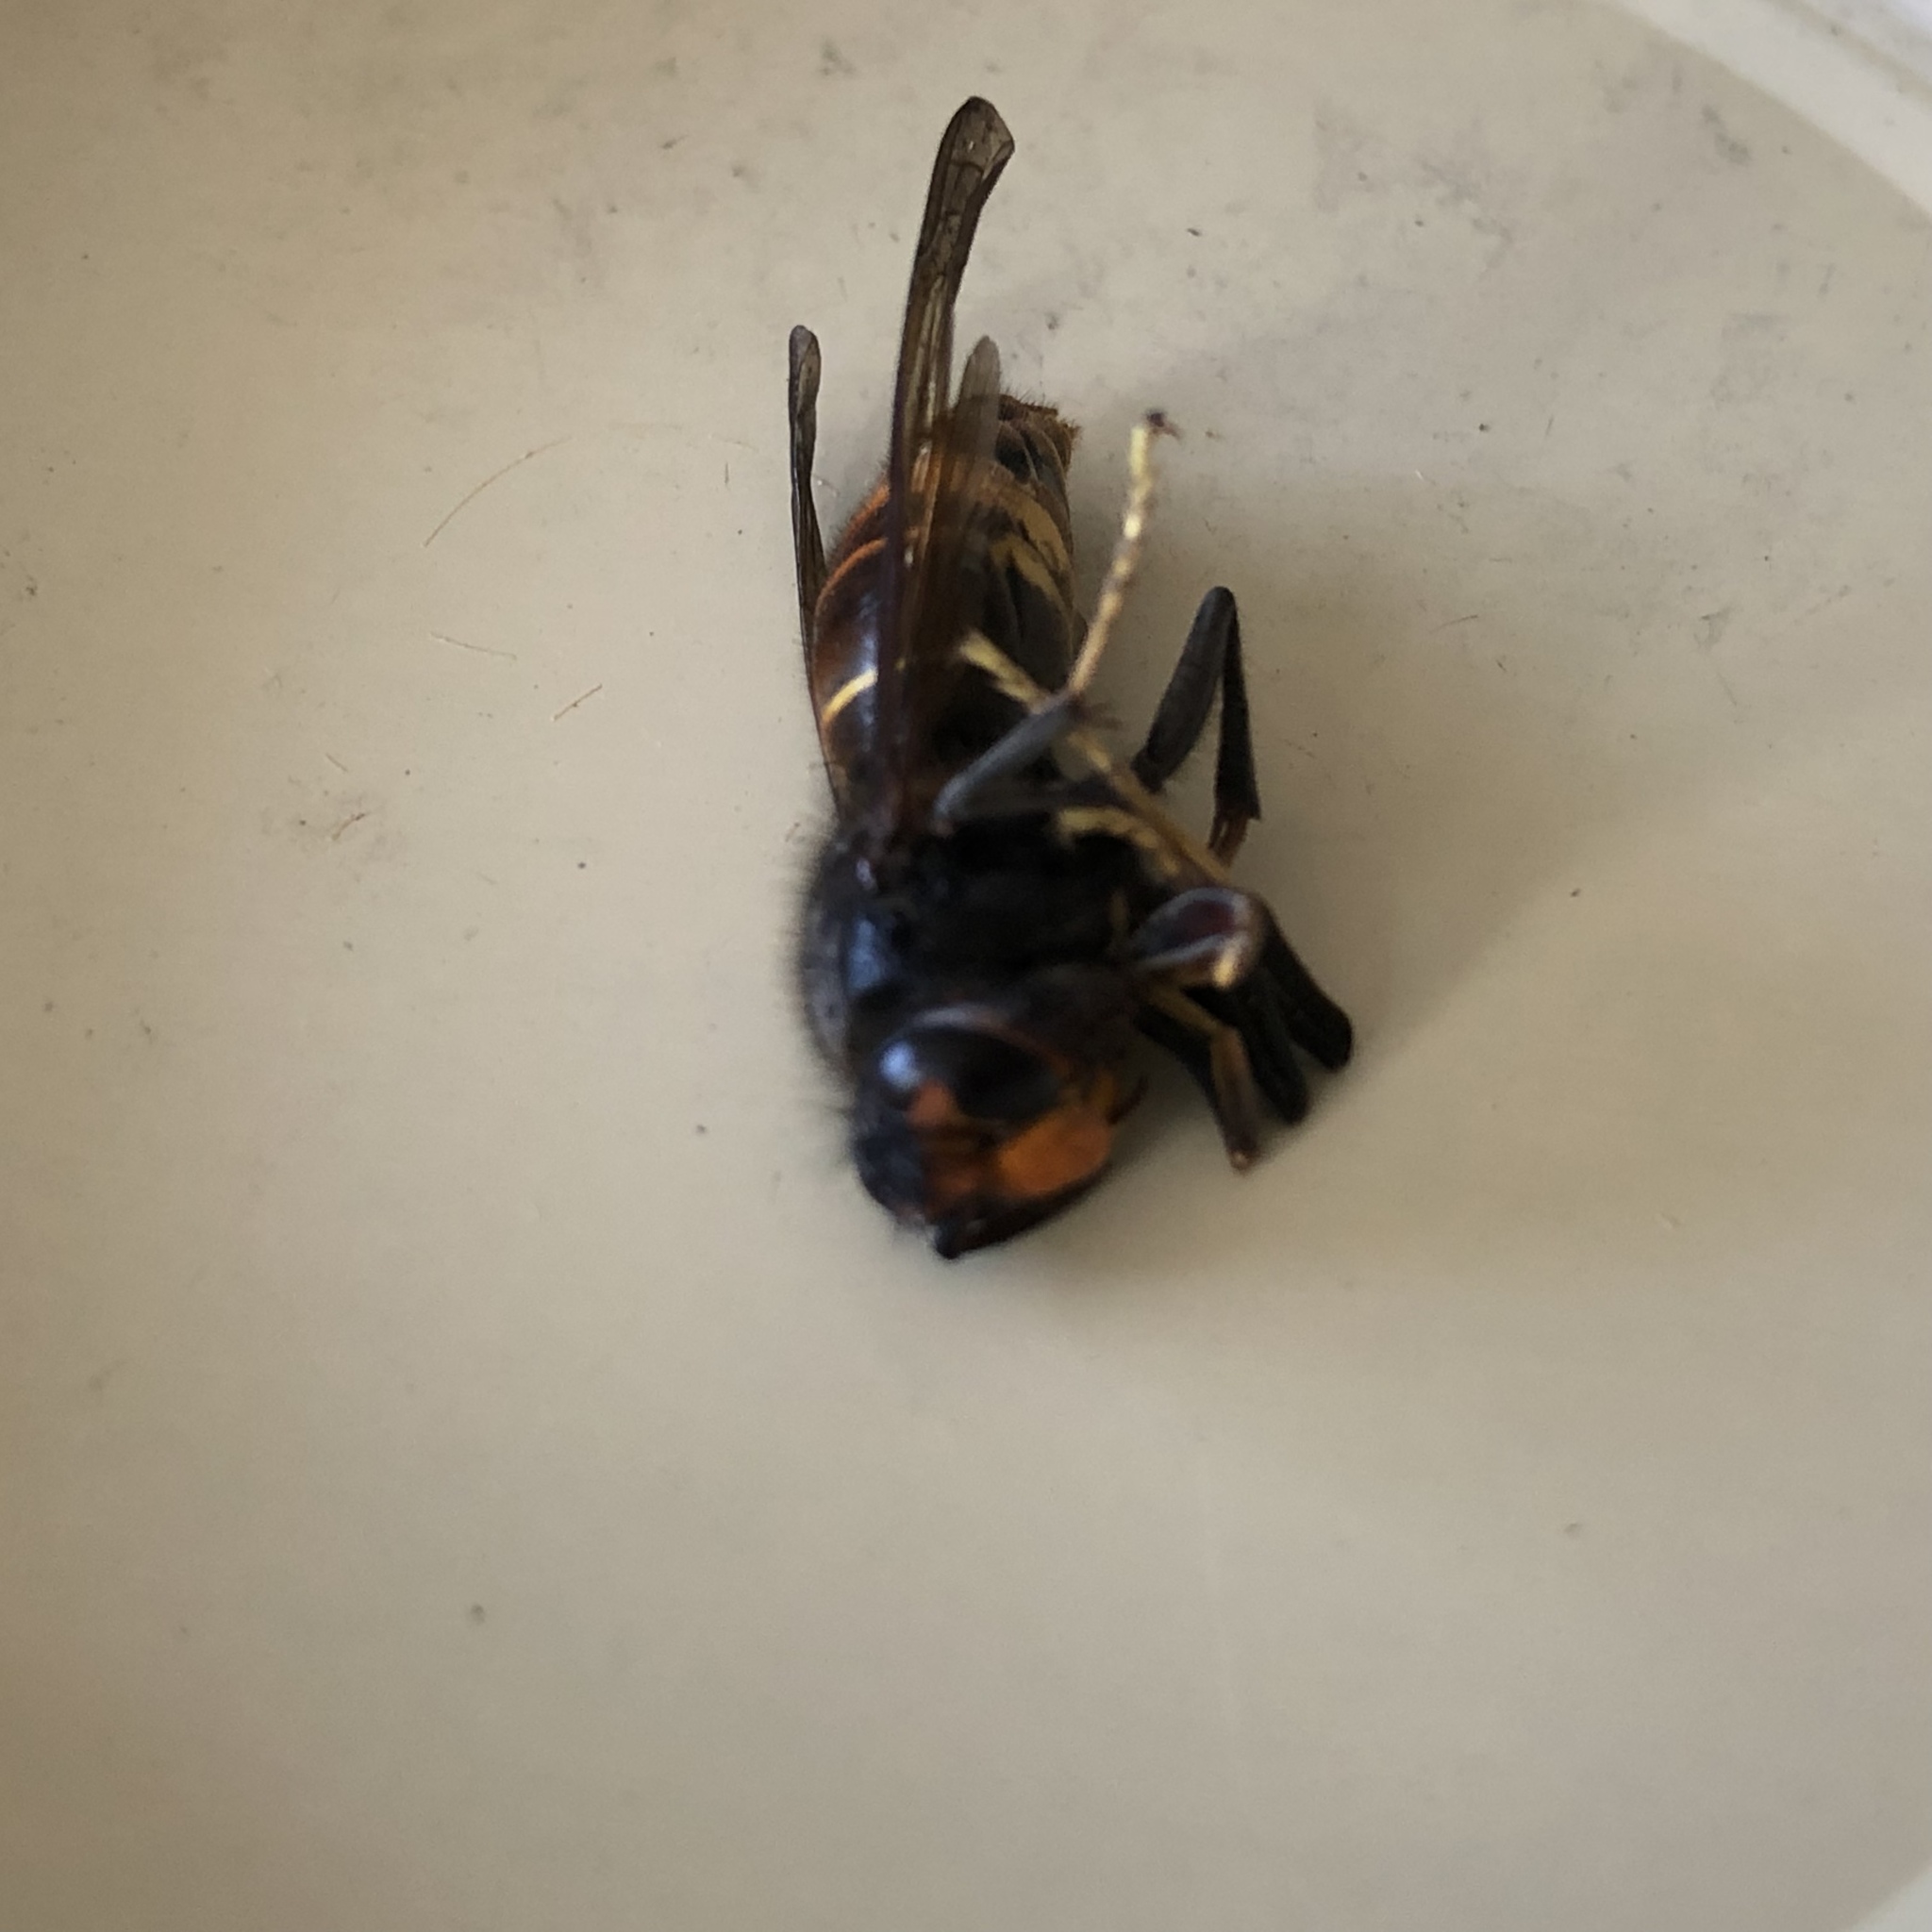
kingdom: Animalia
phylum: Arthropoda
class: Insecta
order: Hymenoptera
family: Vespidae
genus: Vespa
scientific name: Vespa velutina
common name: Asian hornet
